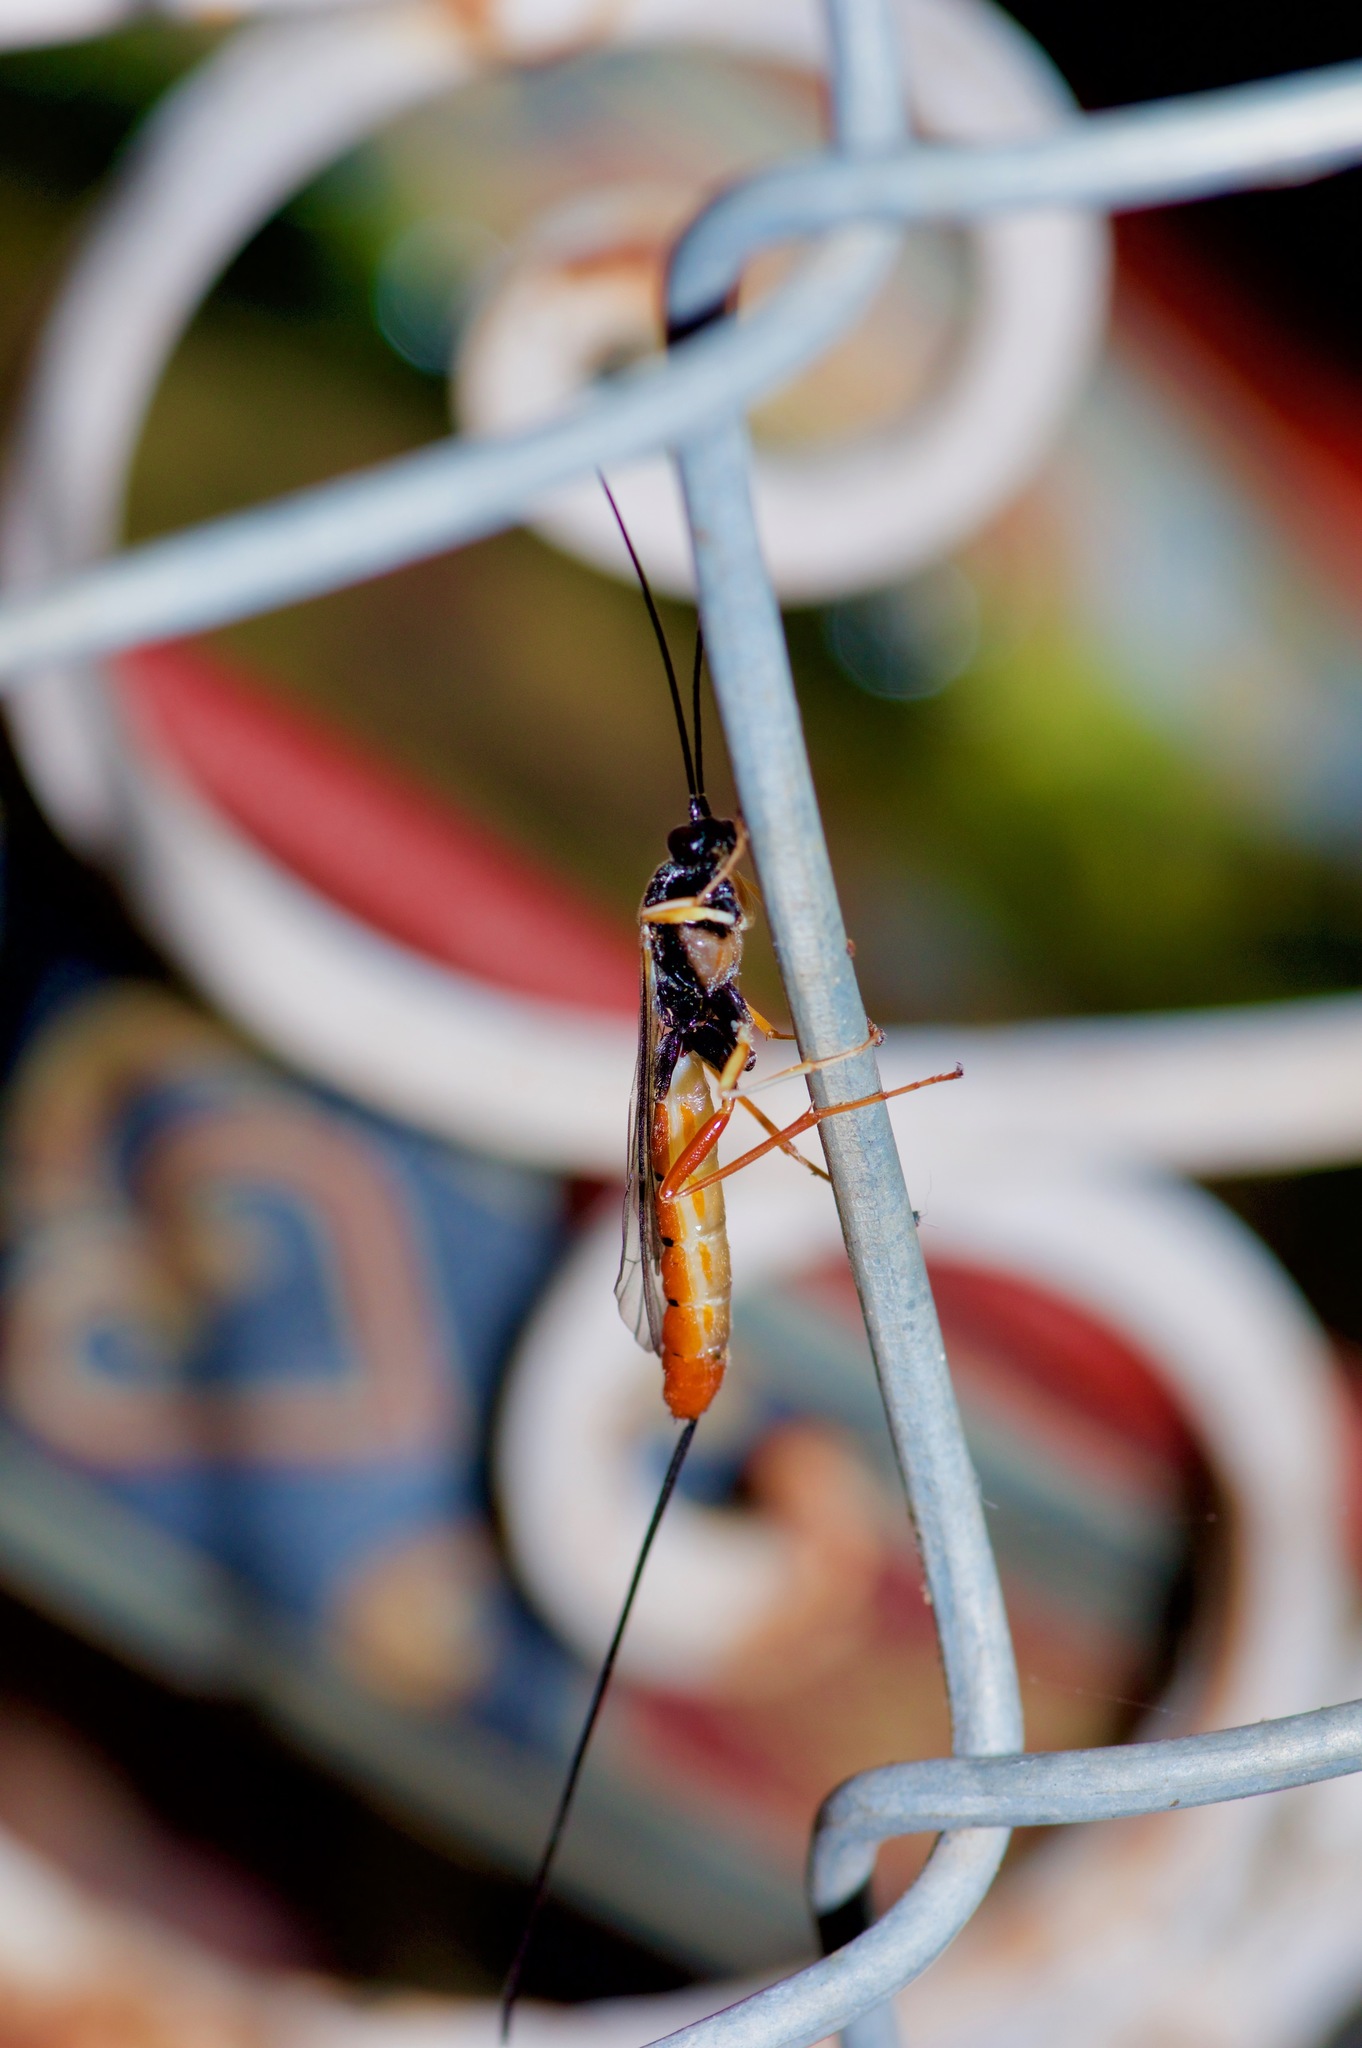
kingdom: Animalia
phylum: Arthropoda
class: Insecta
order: Hymenoptera
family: Ichneumonidae
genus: Dolichomitus
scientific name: Dolichomitus irritator
